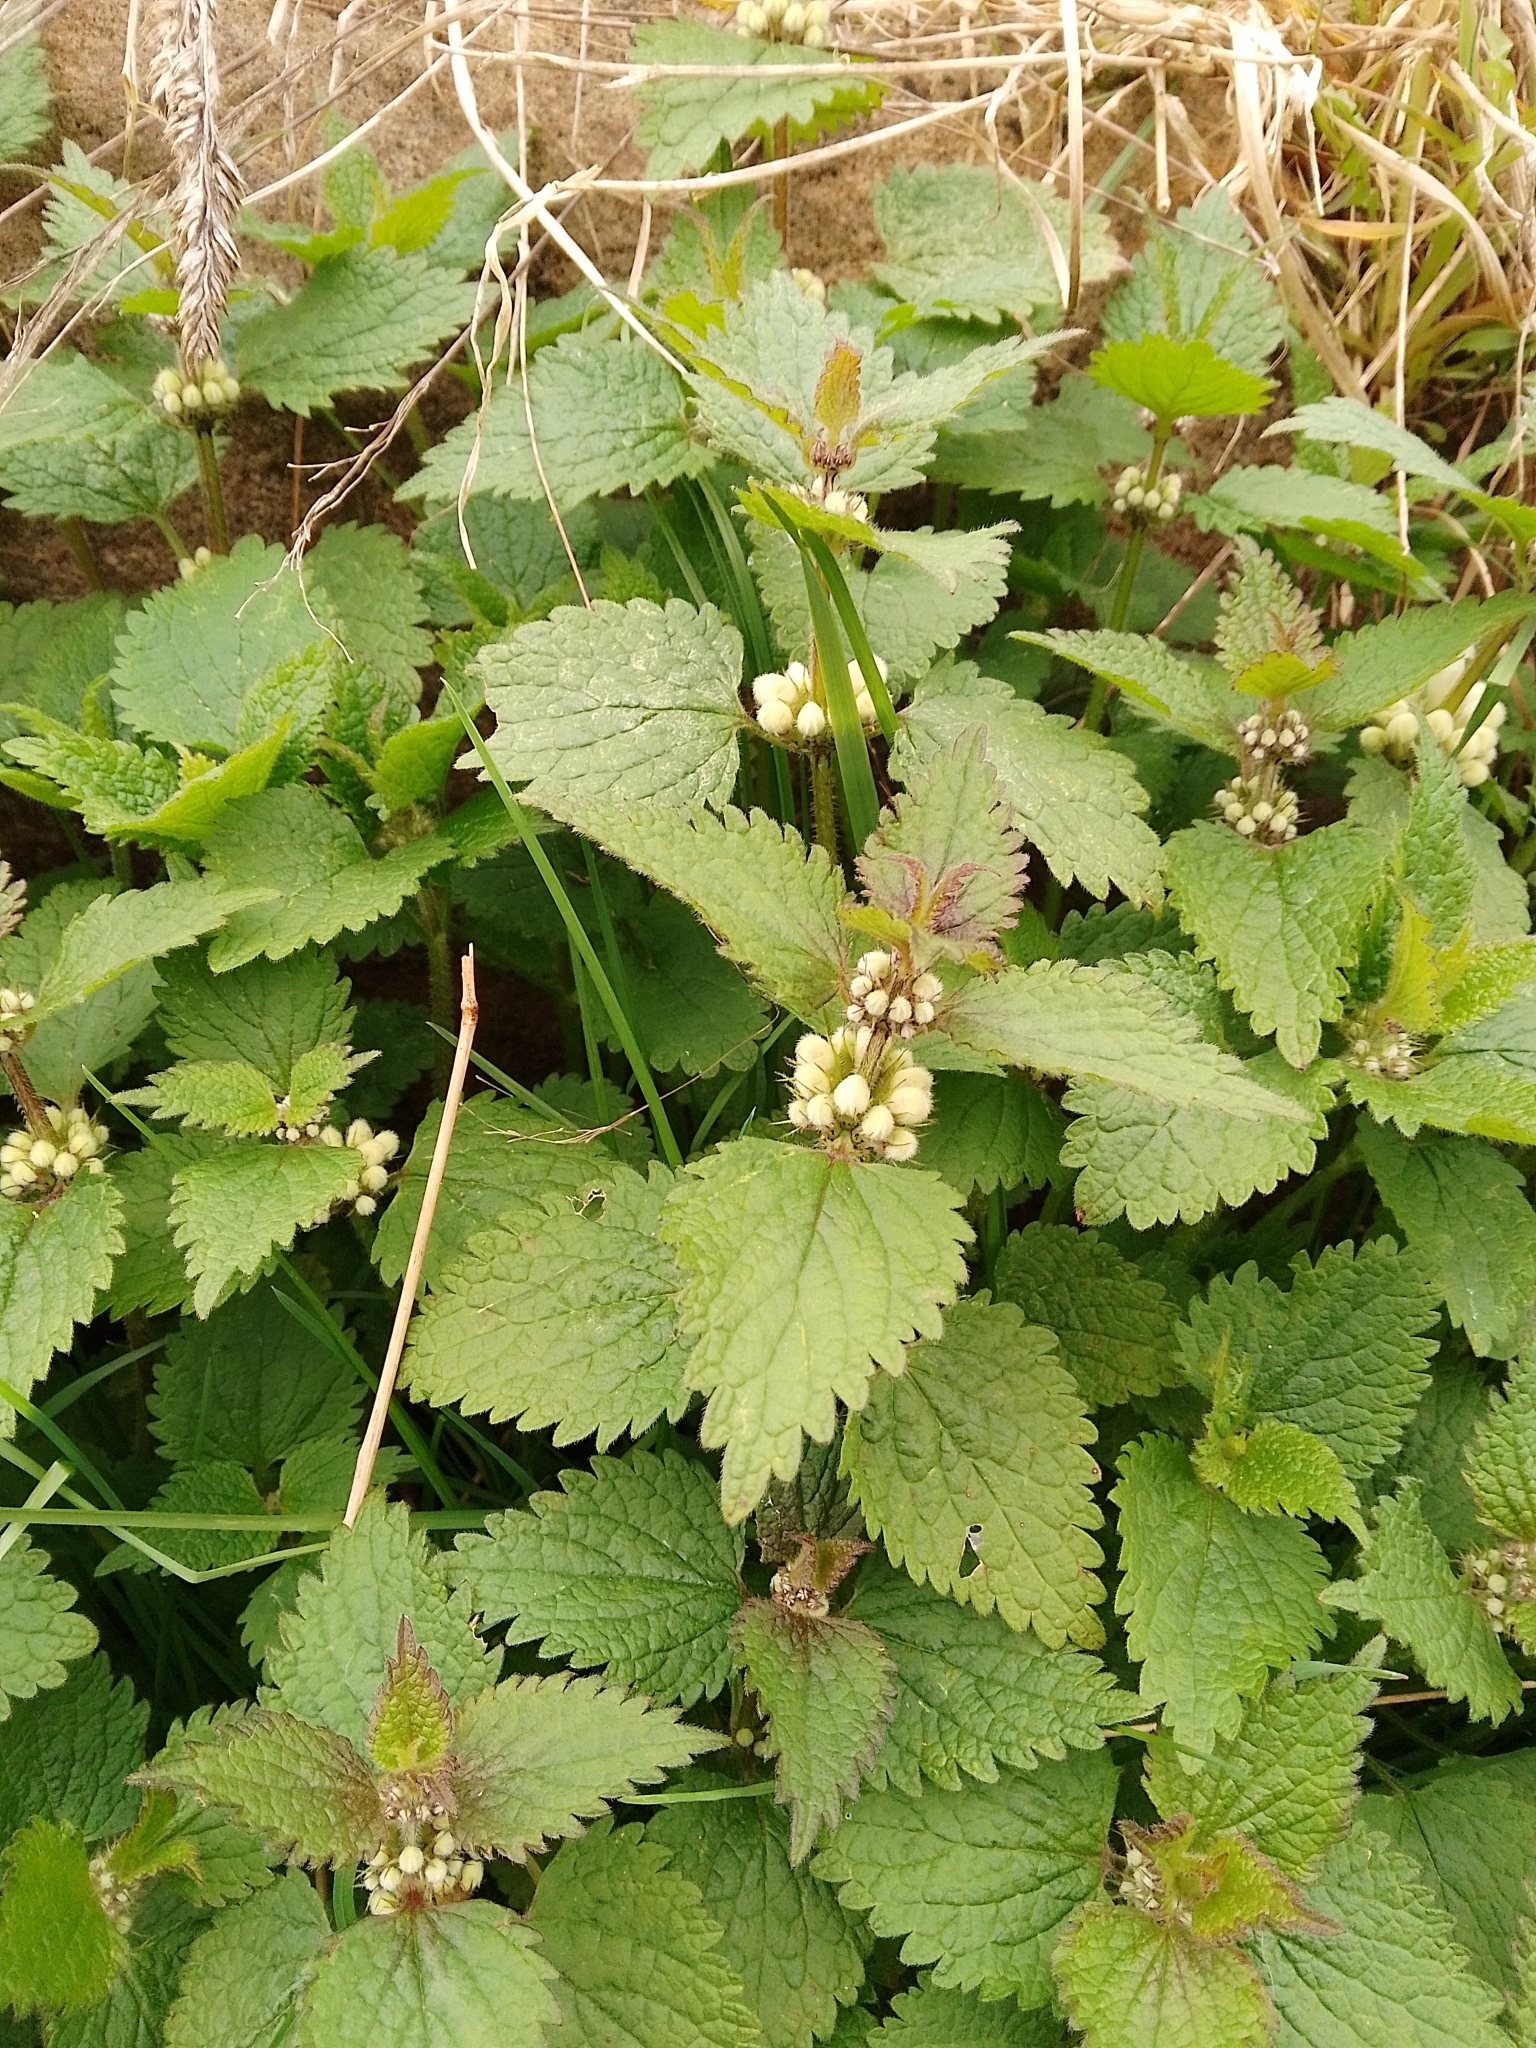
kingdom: Plantae
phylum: Tracheophyta
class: Magnoliopsida
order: Lamiales
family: Lamiaceae
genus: Lamium
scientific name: Lamium album
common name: White dead-nettle
